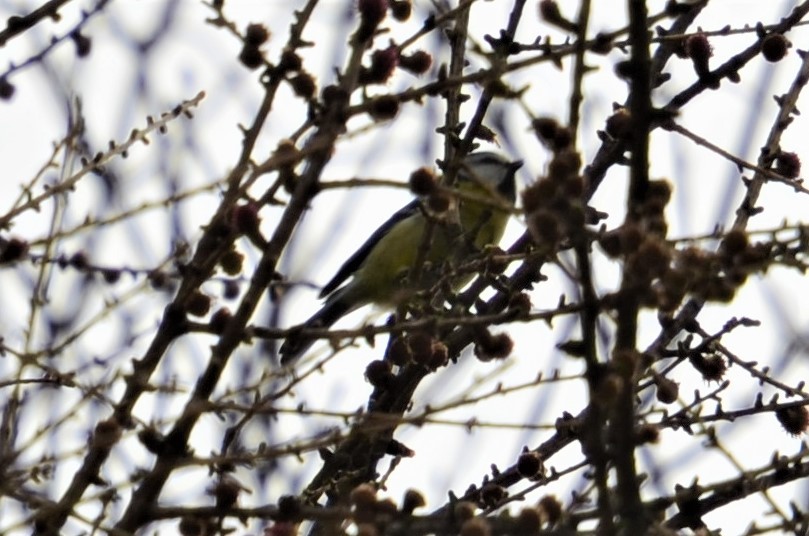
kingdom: Animalia
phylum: Chordata
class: Aves
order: Passeriformes
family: Paridae
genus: Cyanistes
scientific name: Cyanistes caeruleus
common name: Eurasian blue tit
